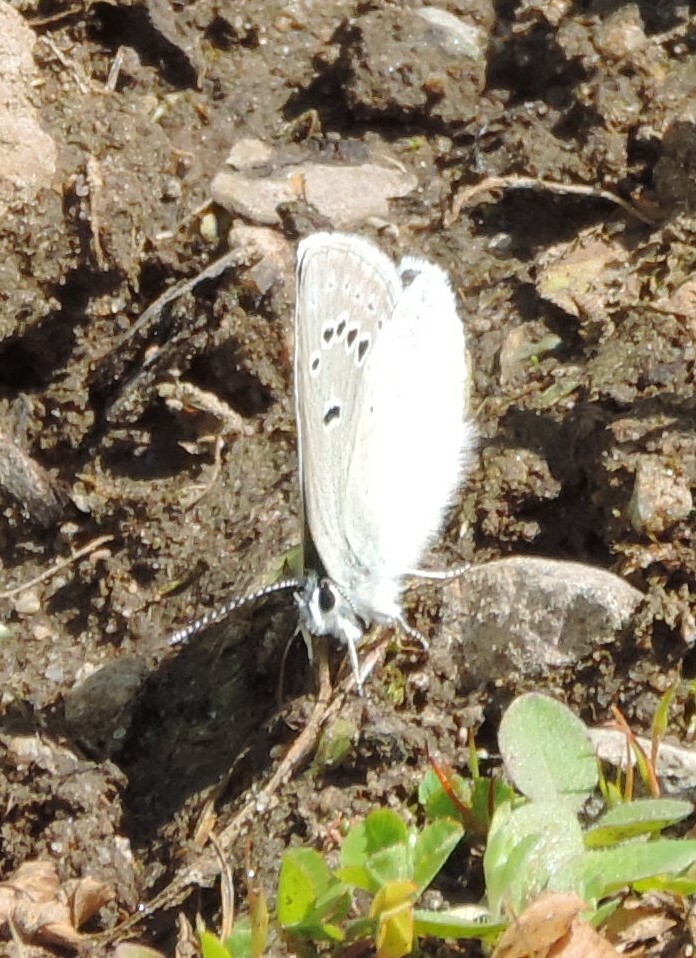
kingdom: Animalia
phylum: Arthropoda
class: Insecta
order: Lepidoptera
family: Lycaenidae
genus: Icaricia
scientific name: Icaricia icarioides
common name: Boisduval's blue
